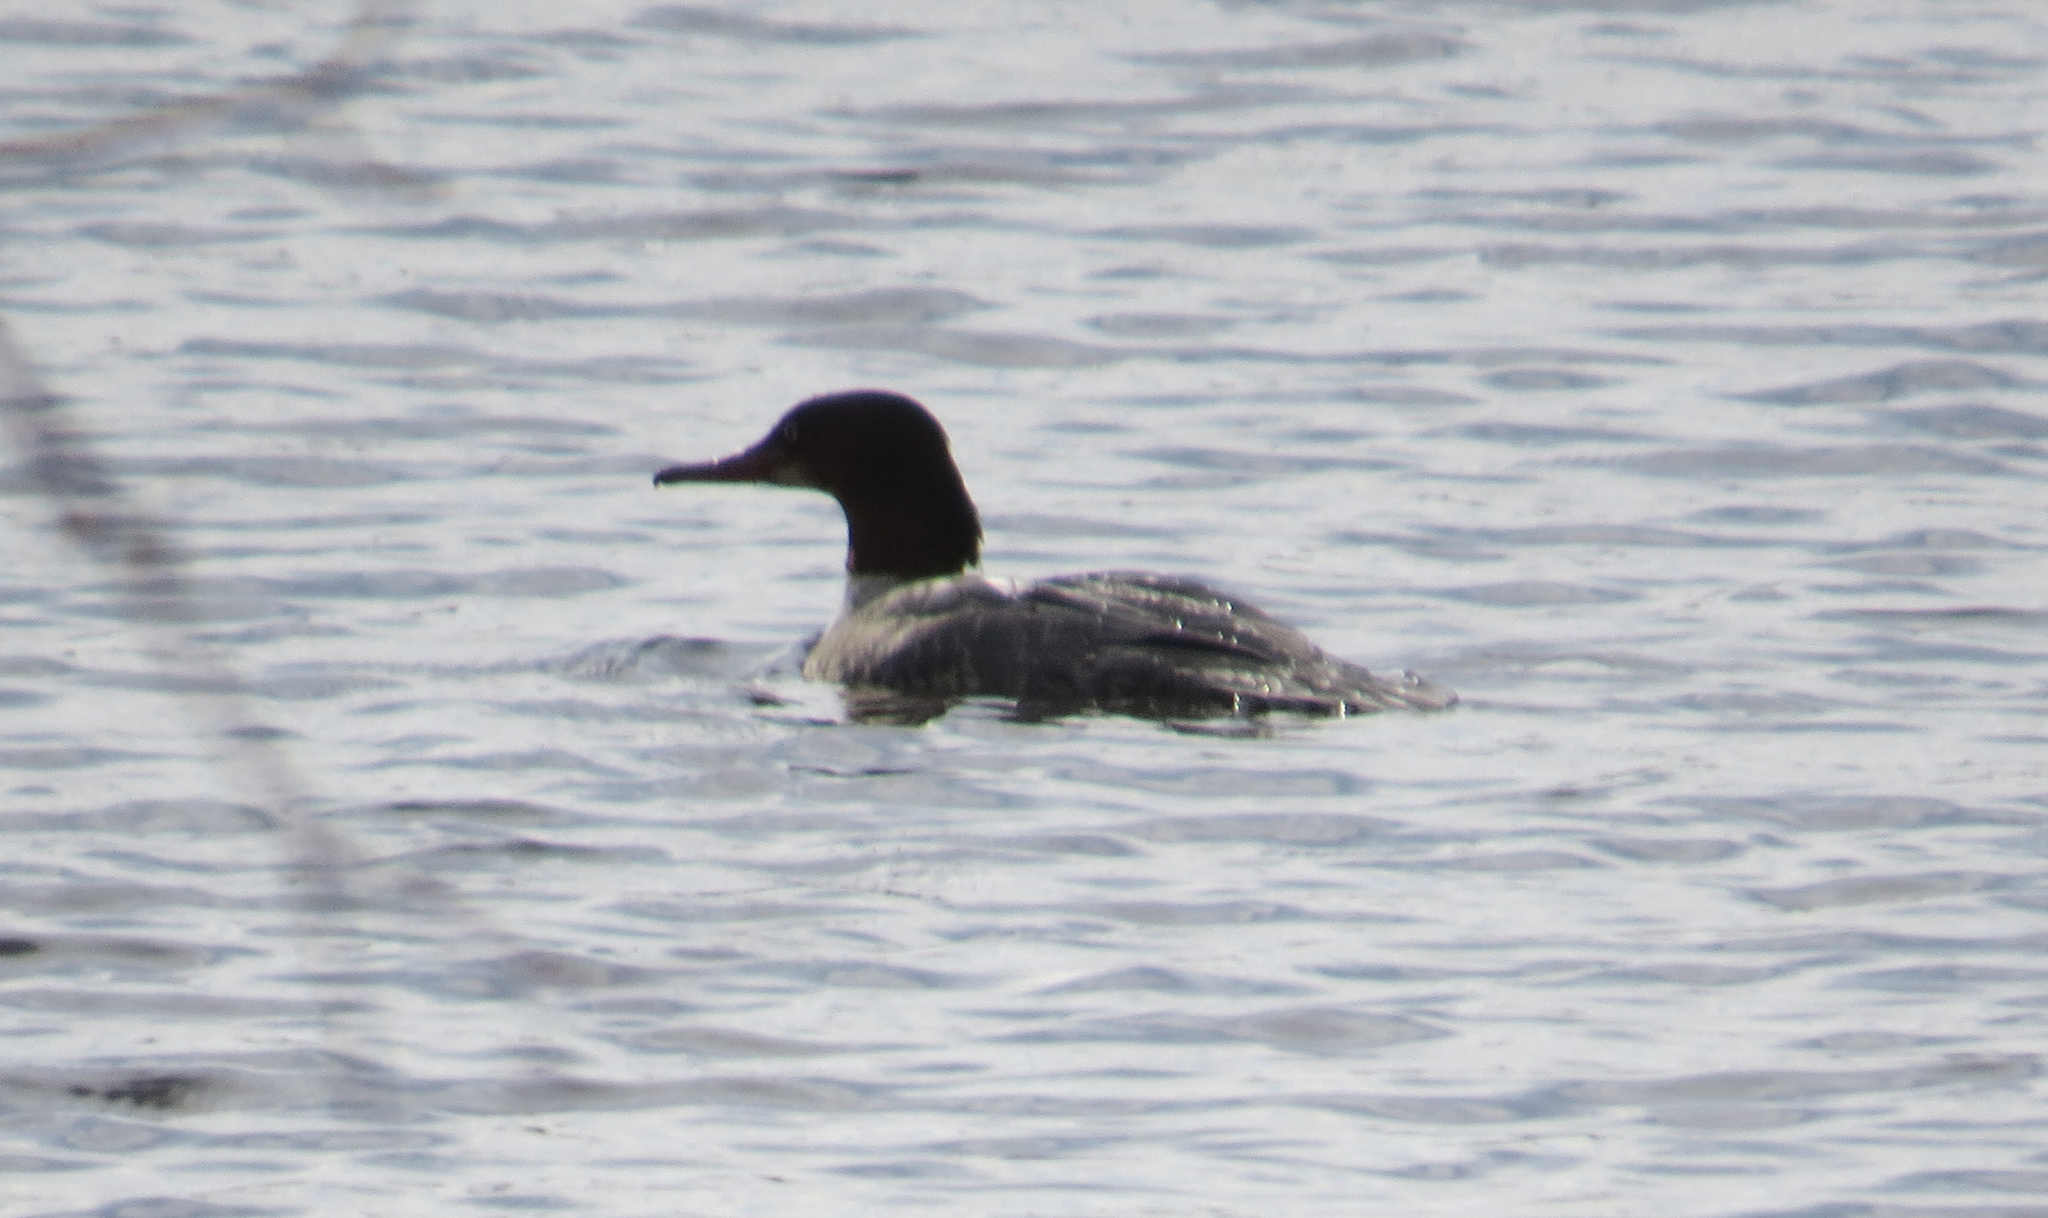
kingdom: Animalia
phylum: Chordata
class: Aves
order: Anseriformes
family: Anatidae
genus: Mergus
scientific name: Mergus merganser
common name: Common merganser
